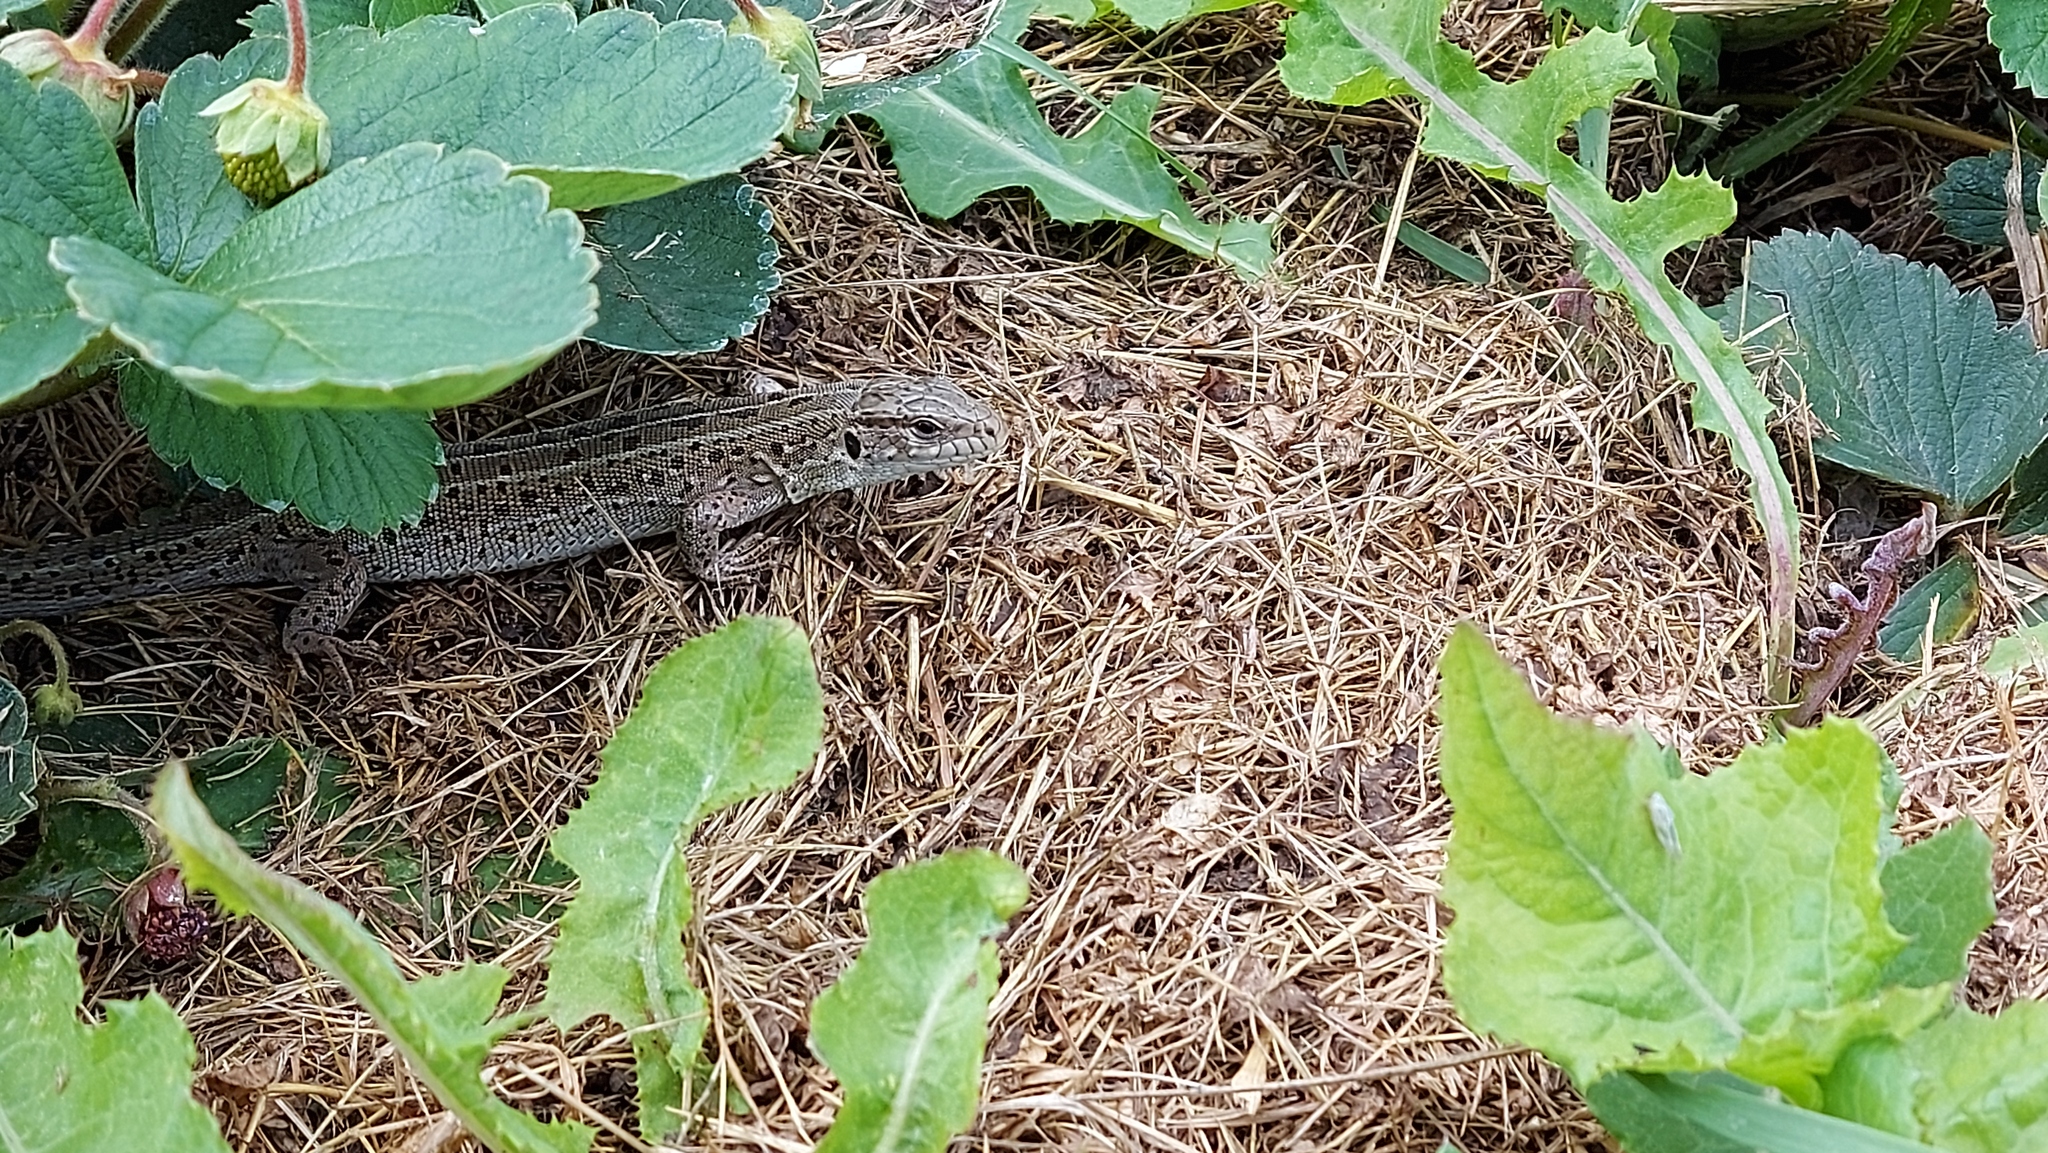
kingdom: Animalia
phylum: Chordata
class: Squamata
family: Lacertidae
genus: Lacerta
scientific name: Lacerta agilis
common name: Sand lizard
